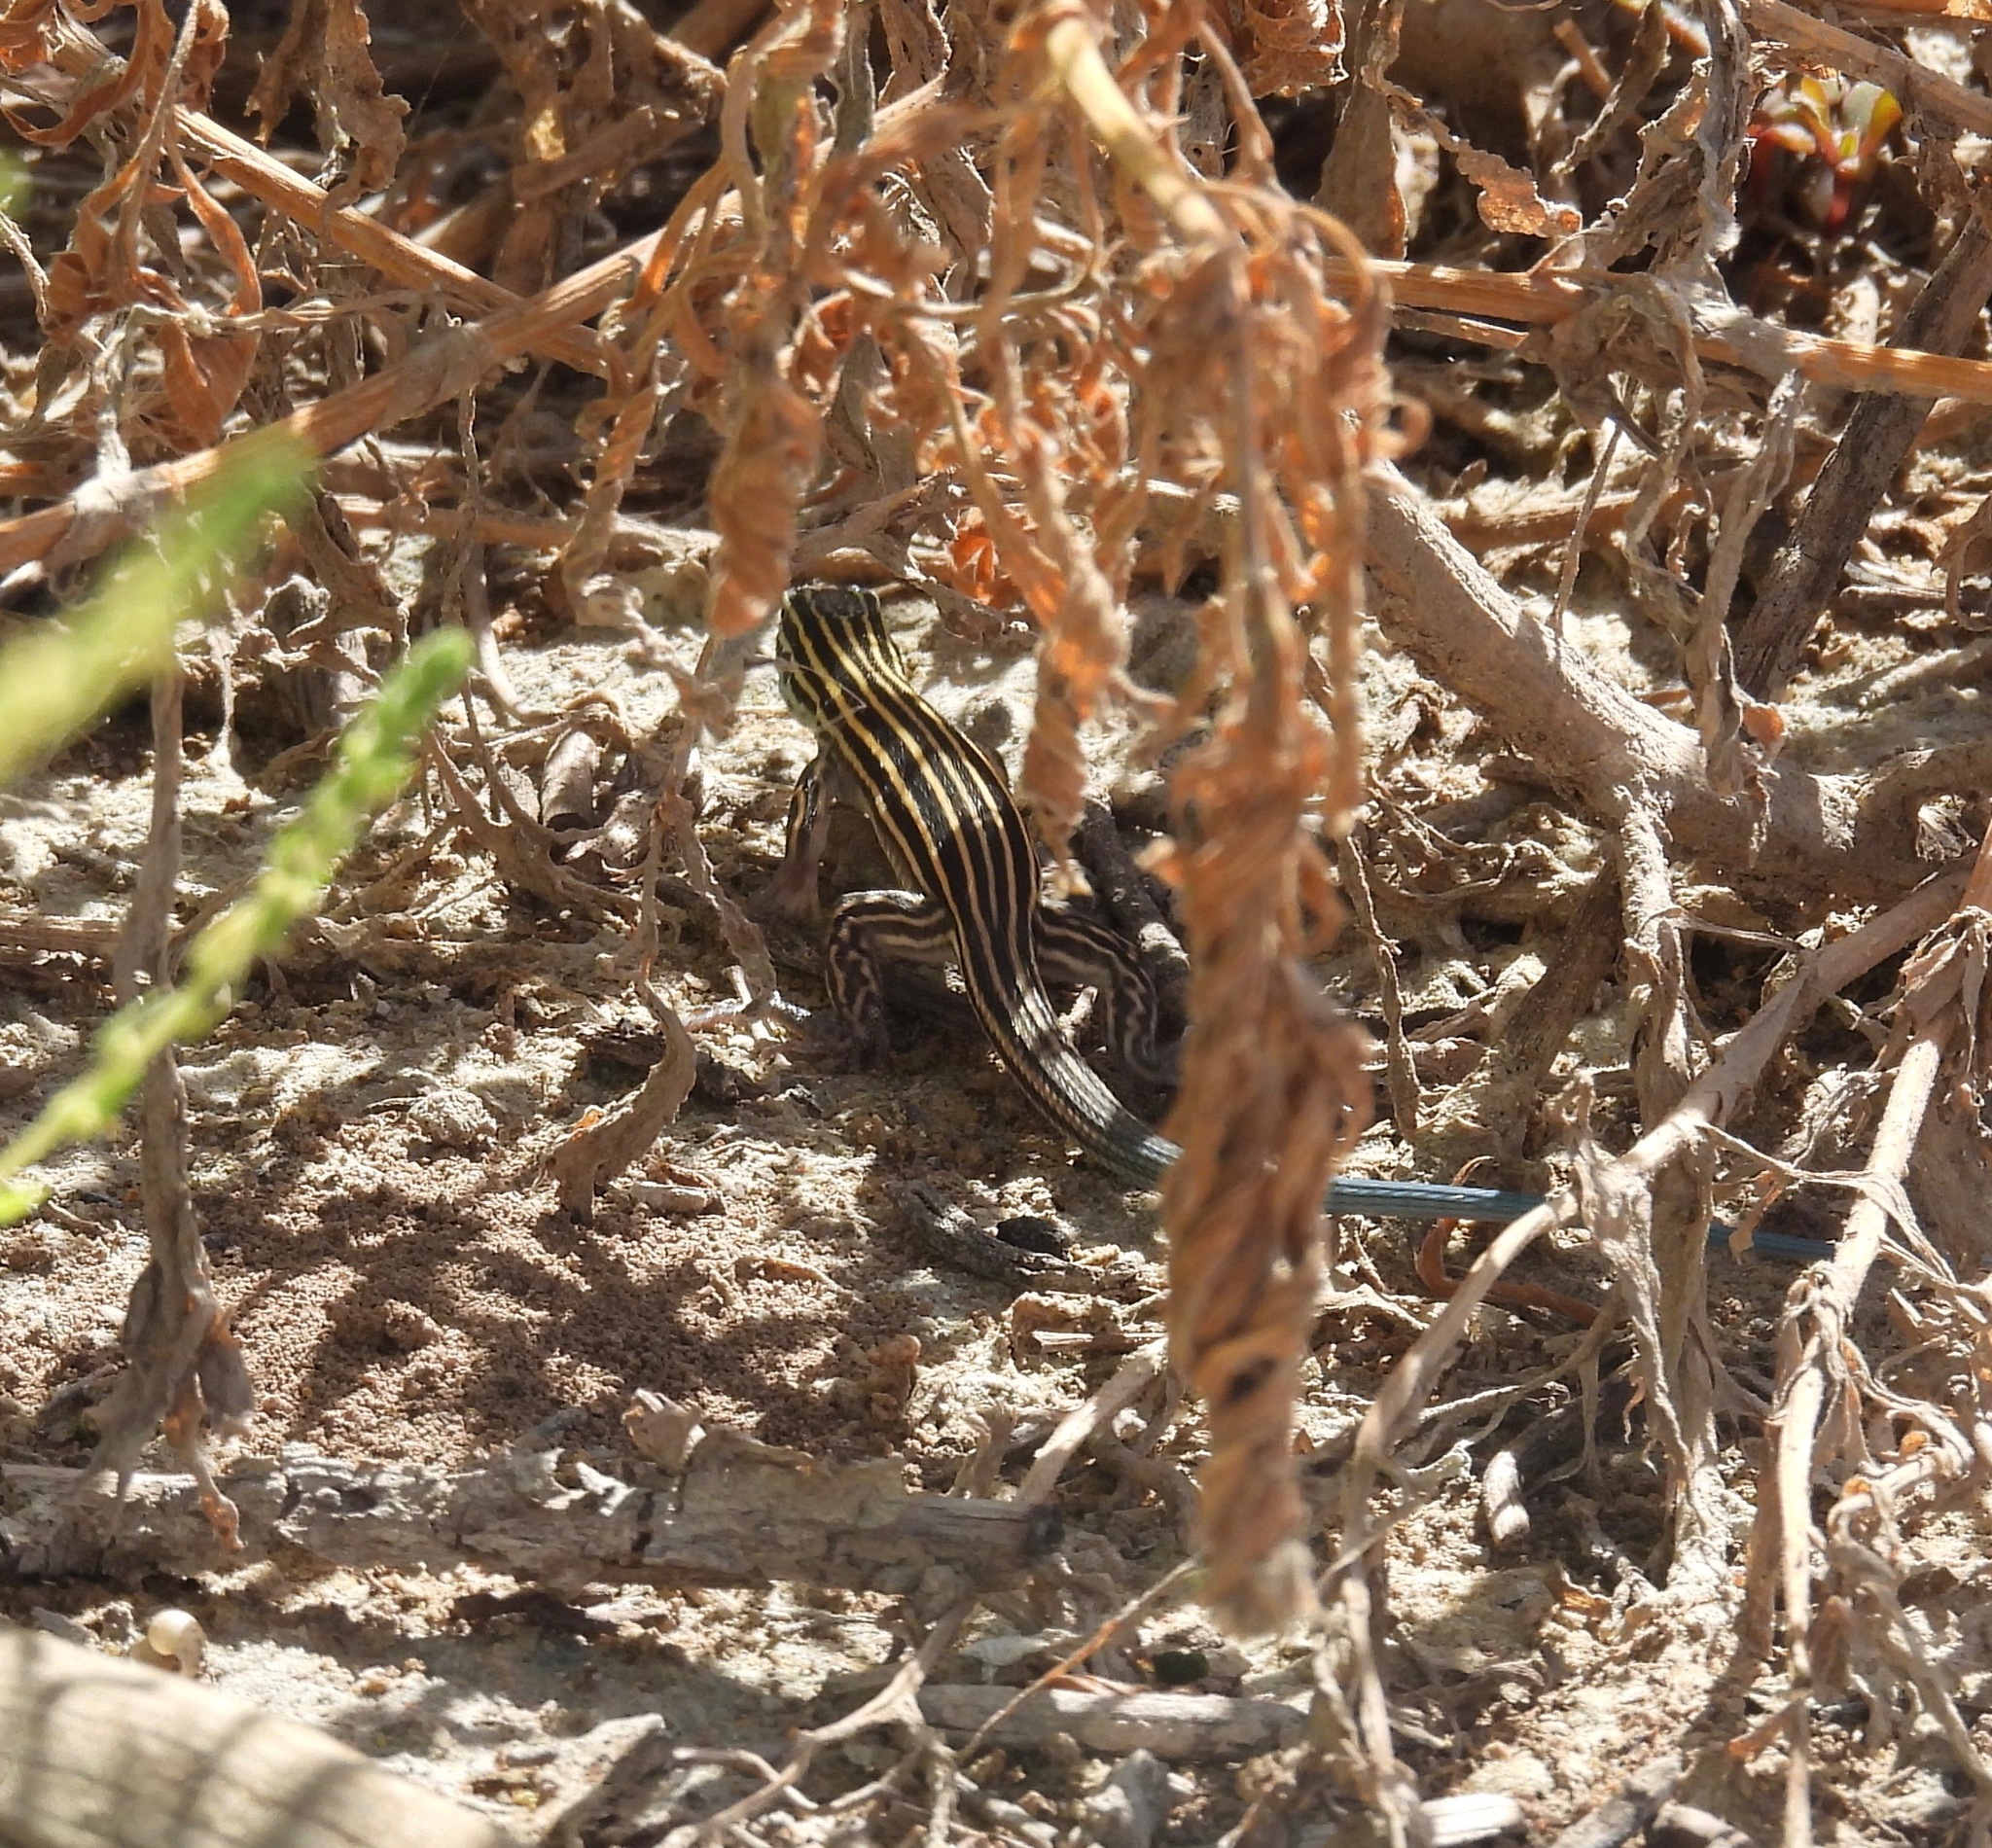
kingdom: Animalia
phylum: Chordata
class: Squamata
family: Teiidae
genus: Aspidoscelis
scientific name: Aspidoscelis inornatus
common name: Little striped whiptail
